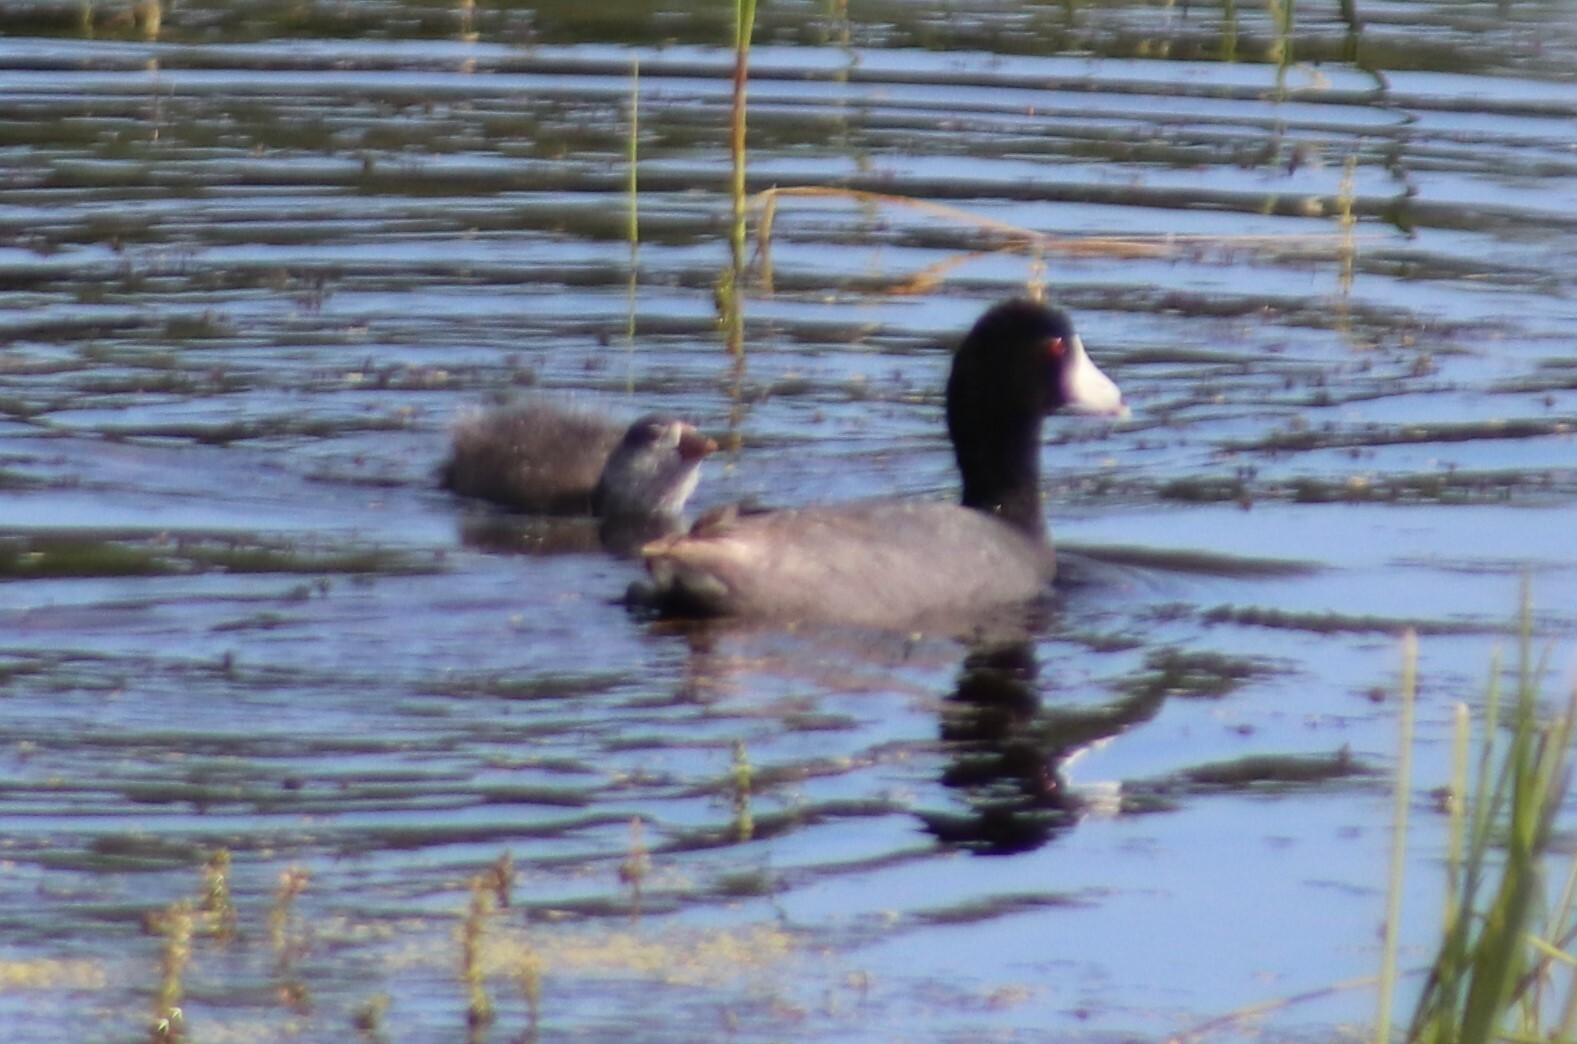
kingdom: Animalia
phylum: Chordata
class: Aves
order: Gruiformes
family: Rallidae
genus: Fulica
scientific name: Fulica americana
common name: American coot
